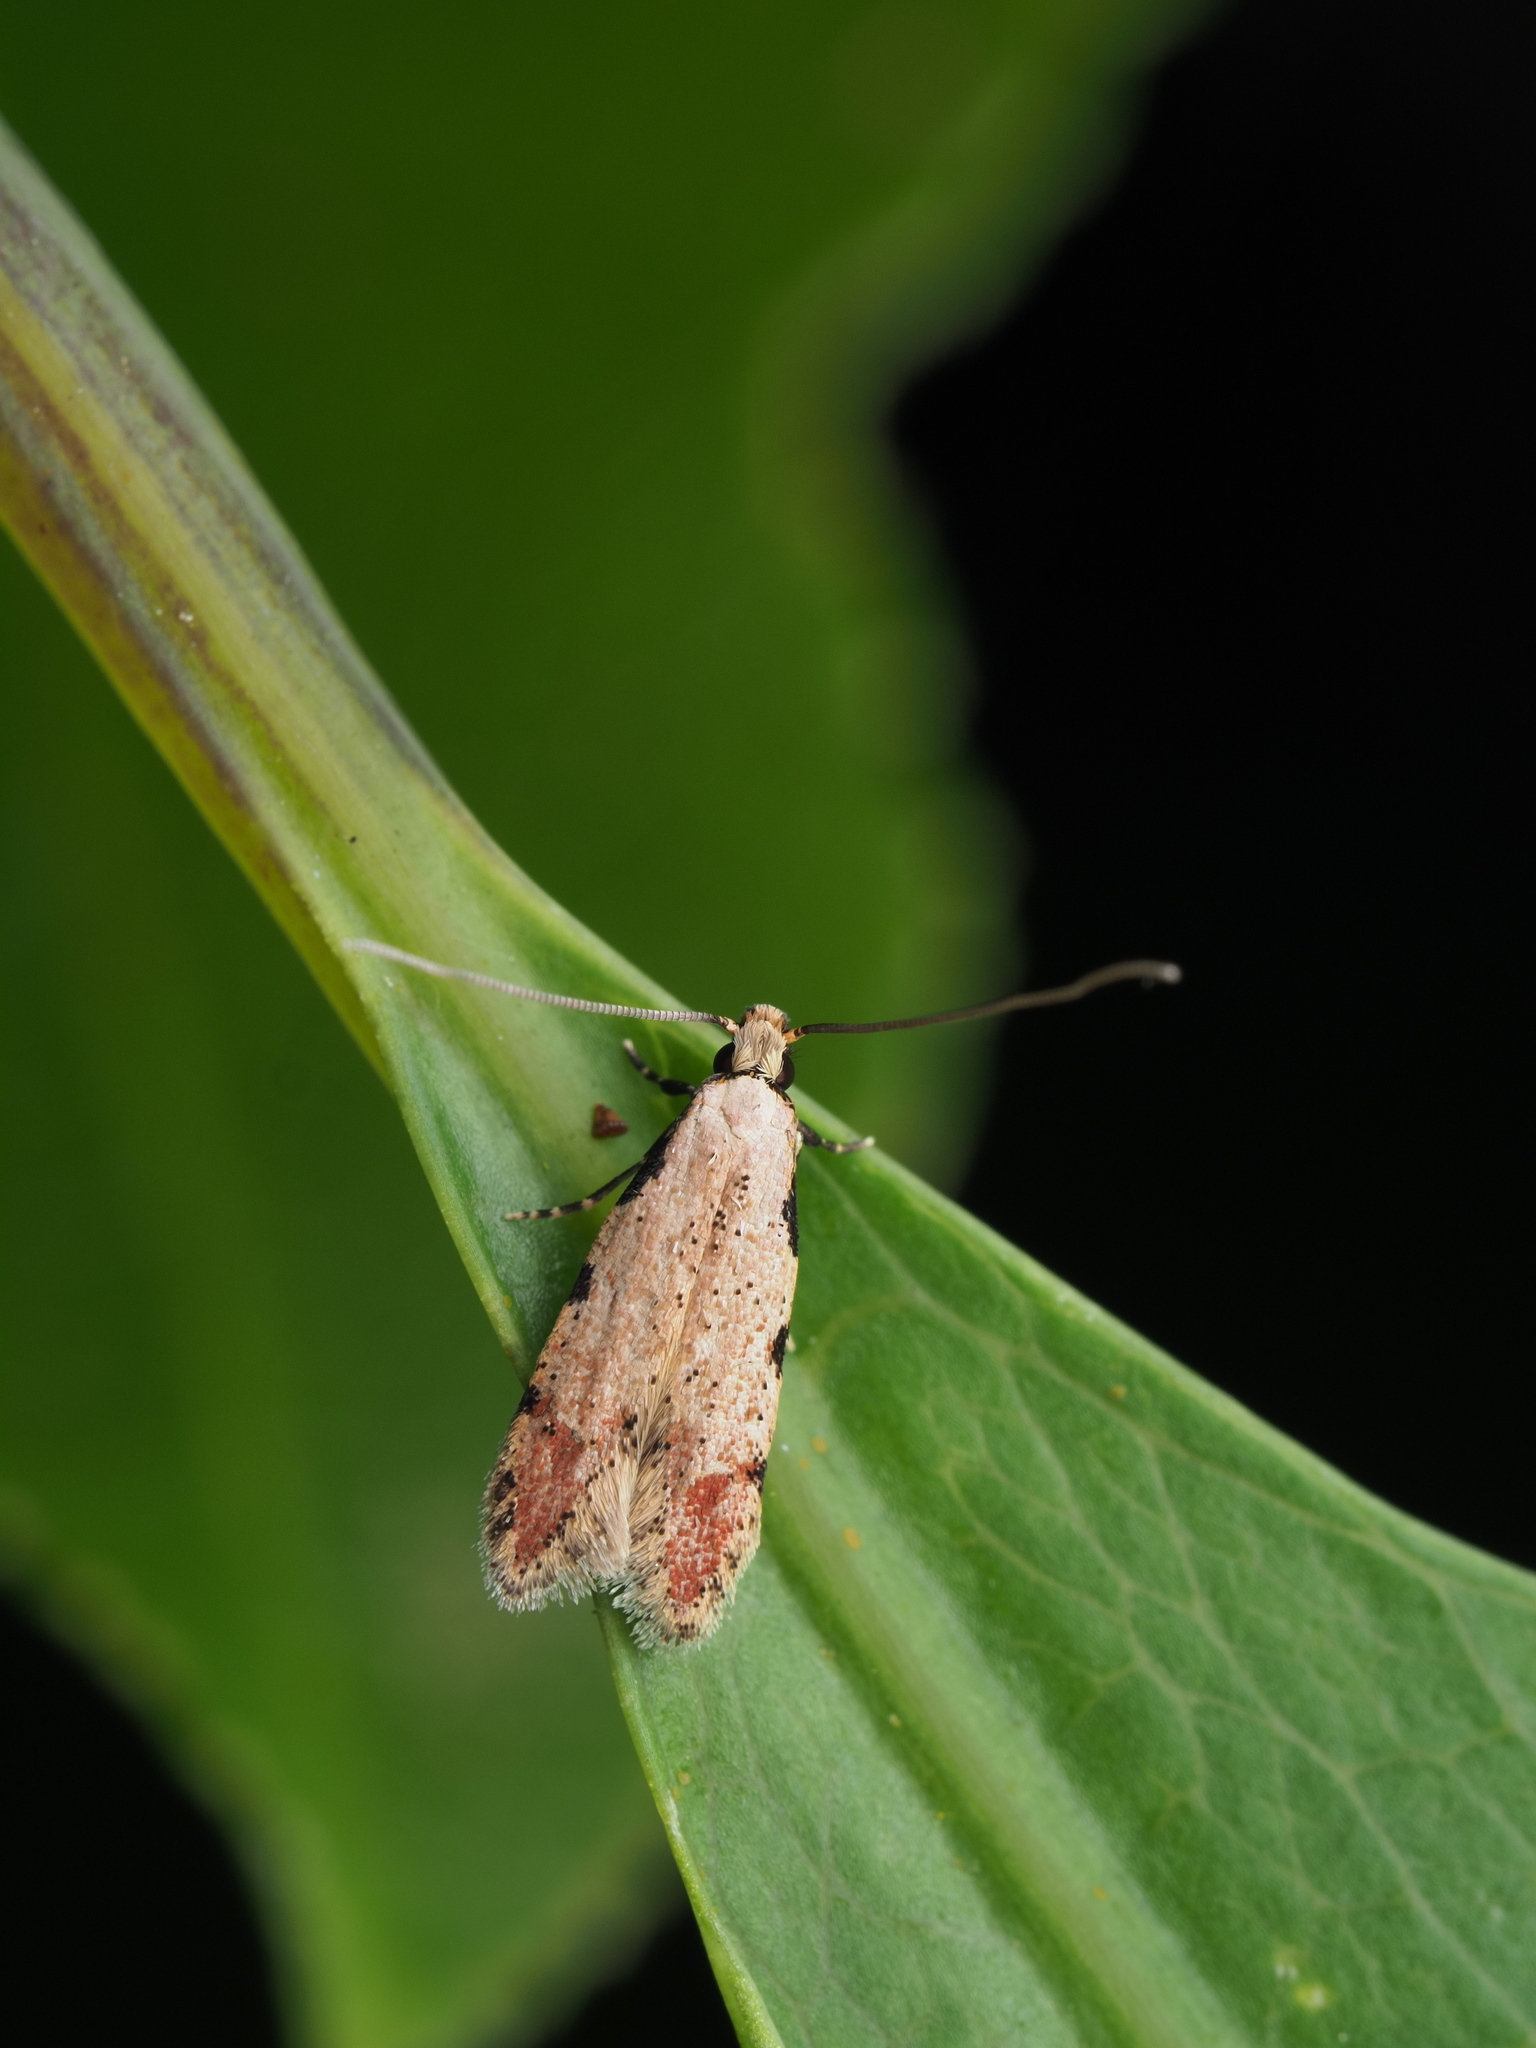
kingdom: Animalia
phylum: Arthropoda
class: Insecta
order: Lepidoptera
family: Tineidae
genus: Endophthora
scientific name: Endophthora rubiginella
